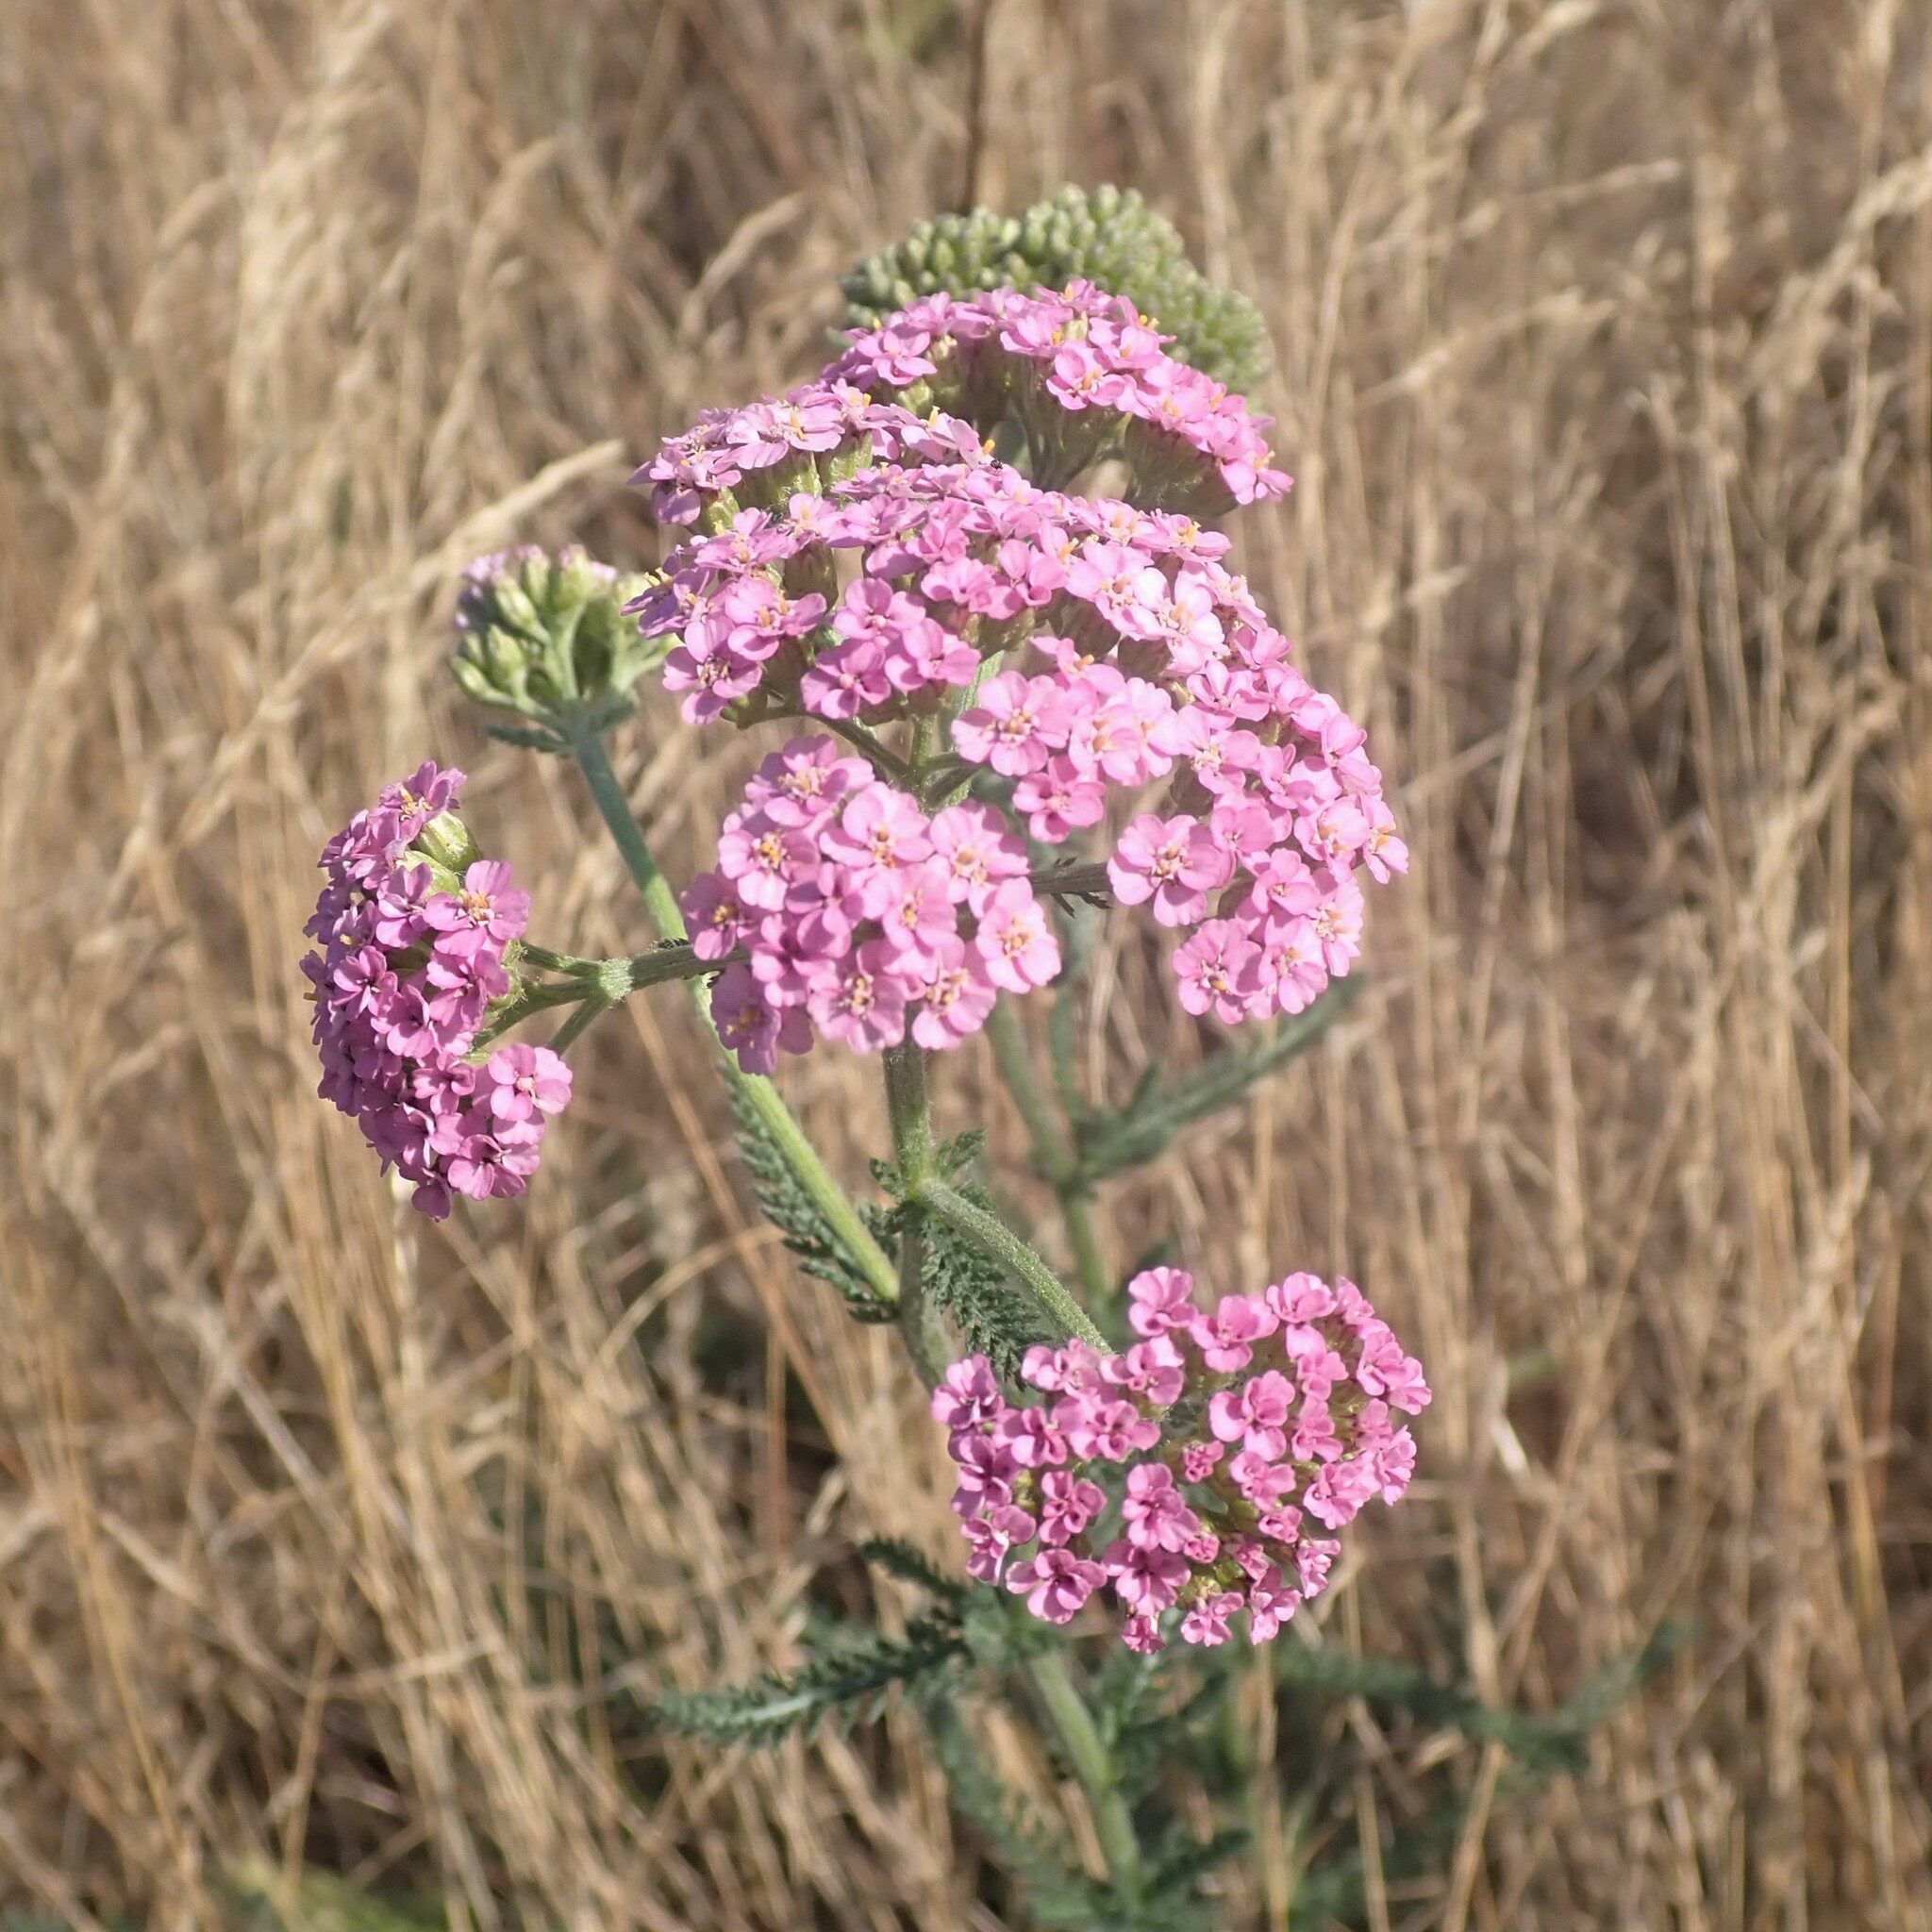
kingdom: Plantae
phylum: Tracheophyta
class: Magnoliopsida
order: Asterales
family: Asteraceae
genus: Achillea
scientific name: Achillea millefolium
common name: Yarrow
